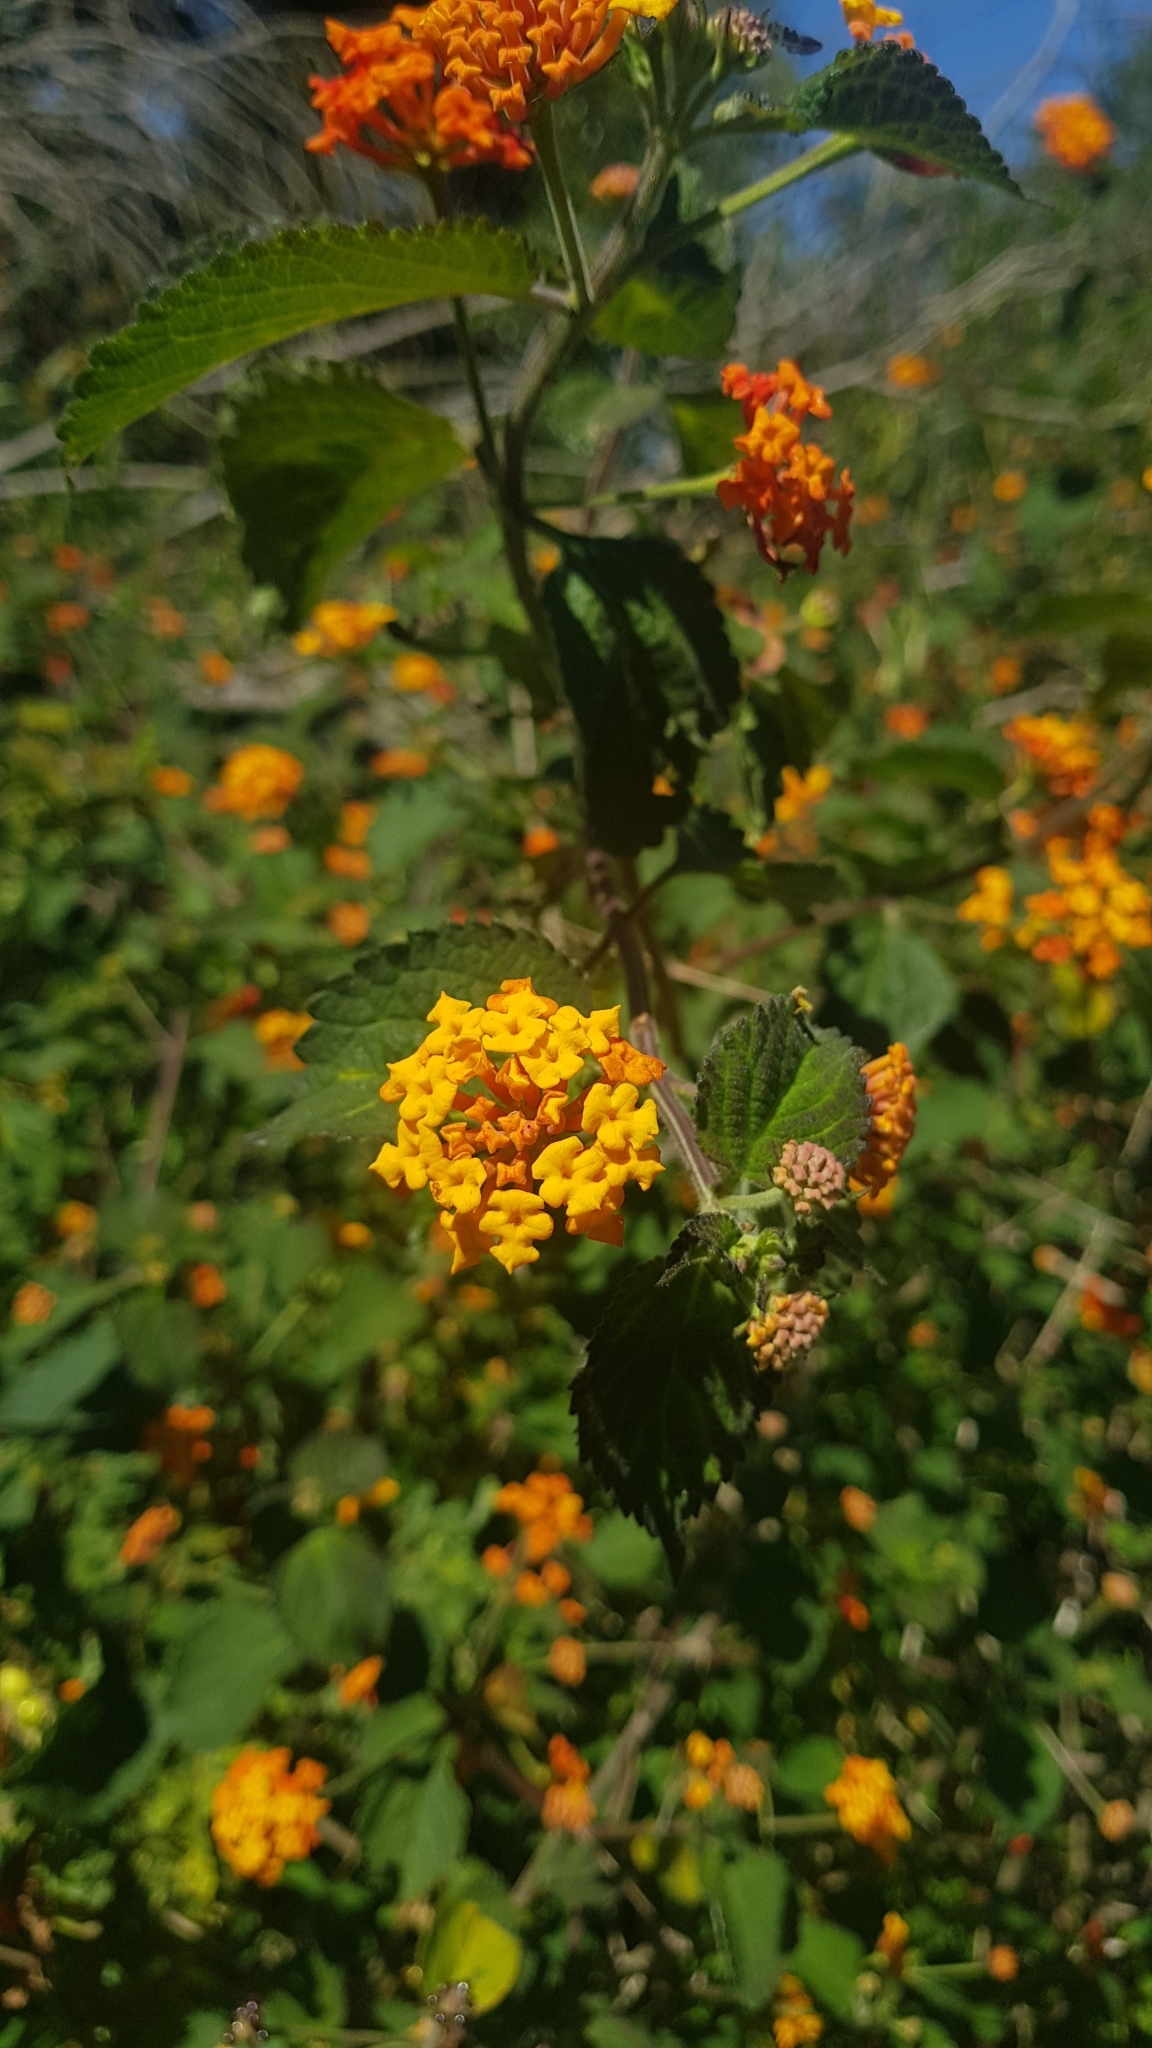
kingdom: Plantae
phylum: Tracheophyta
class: Magnoliopsida
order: Lamiales
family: Verbenaceae
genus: Lantana
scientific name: Lantana camara
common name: Lantana
